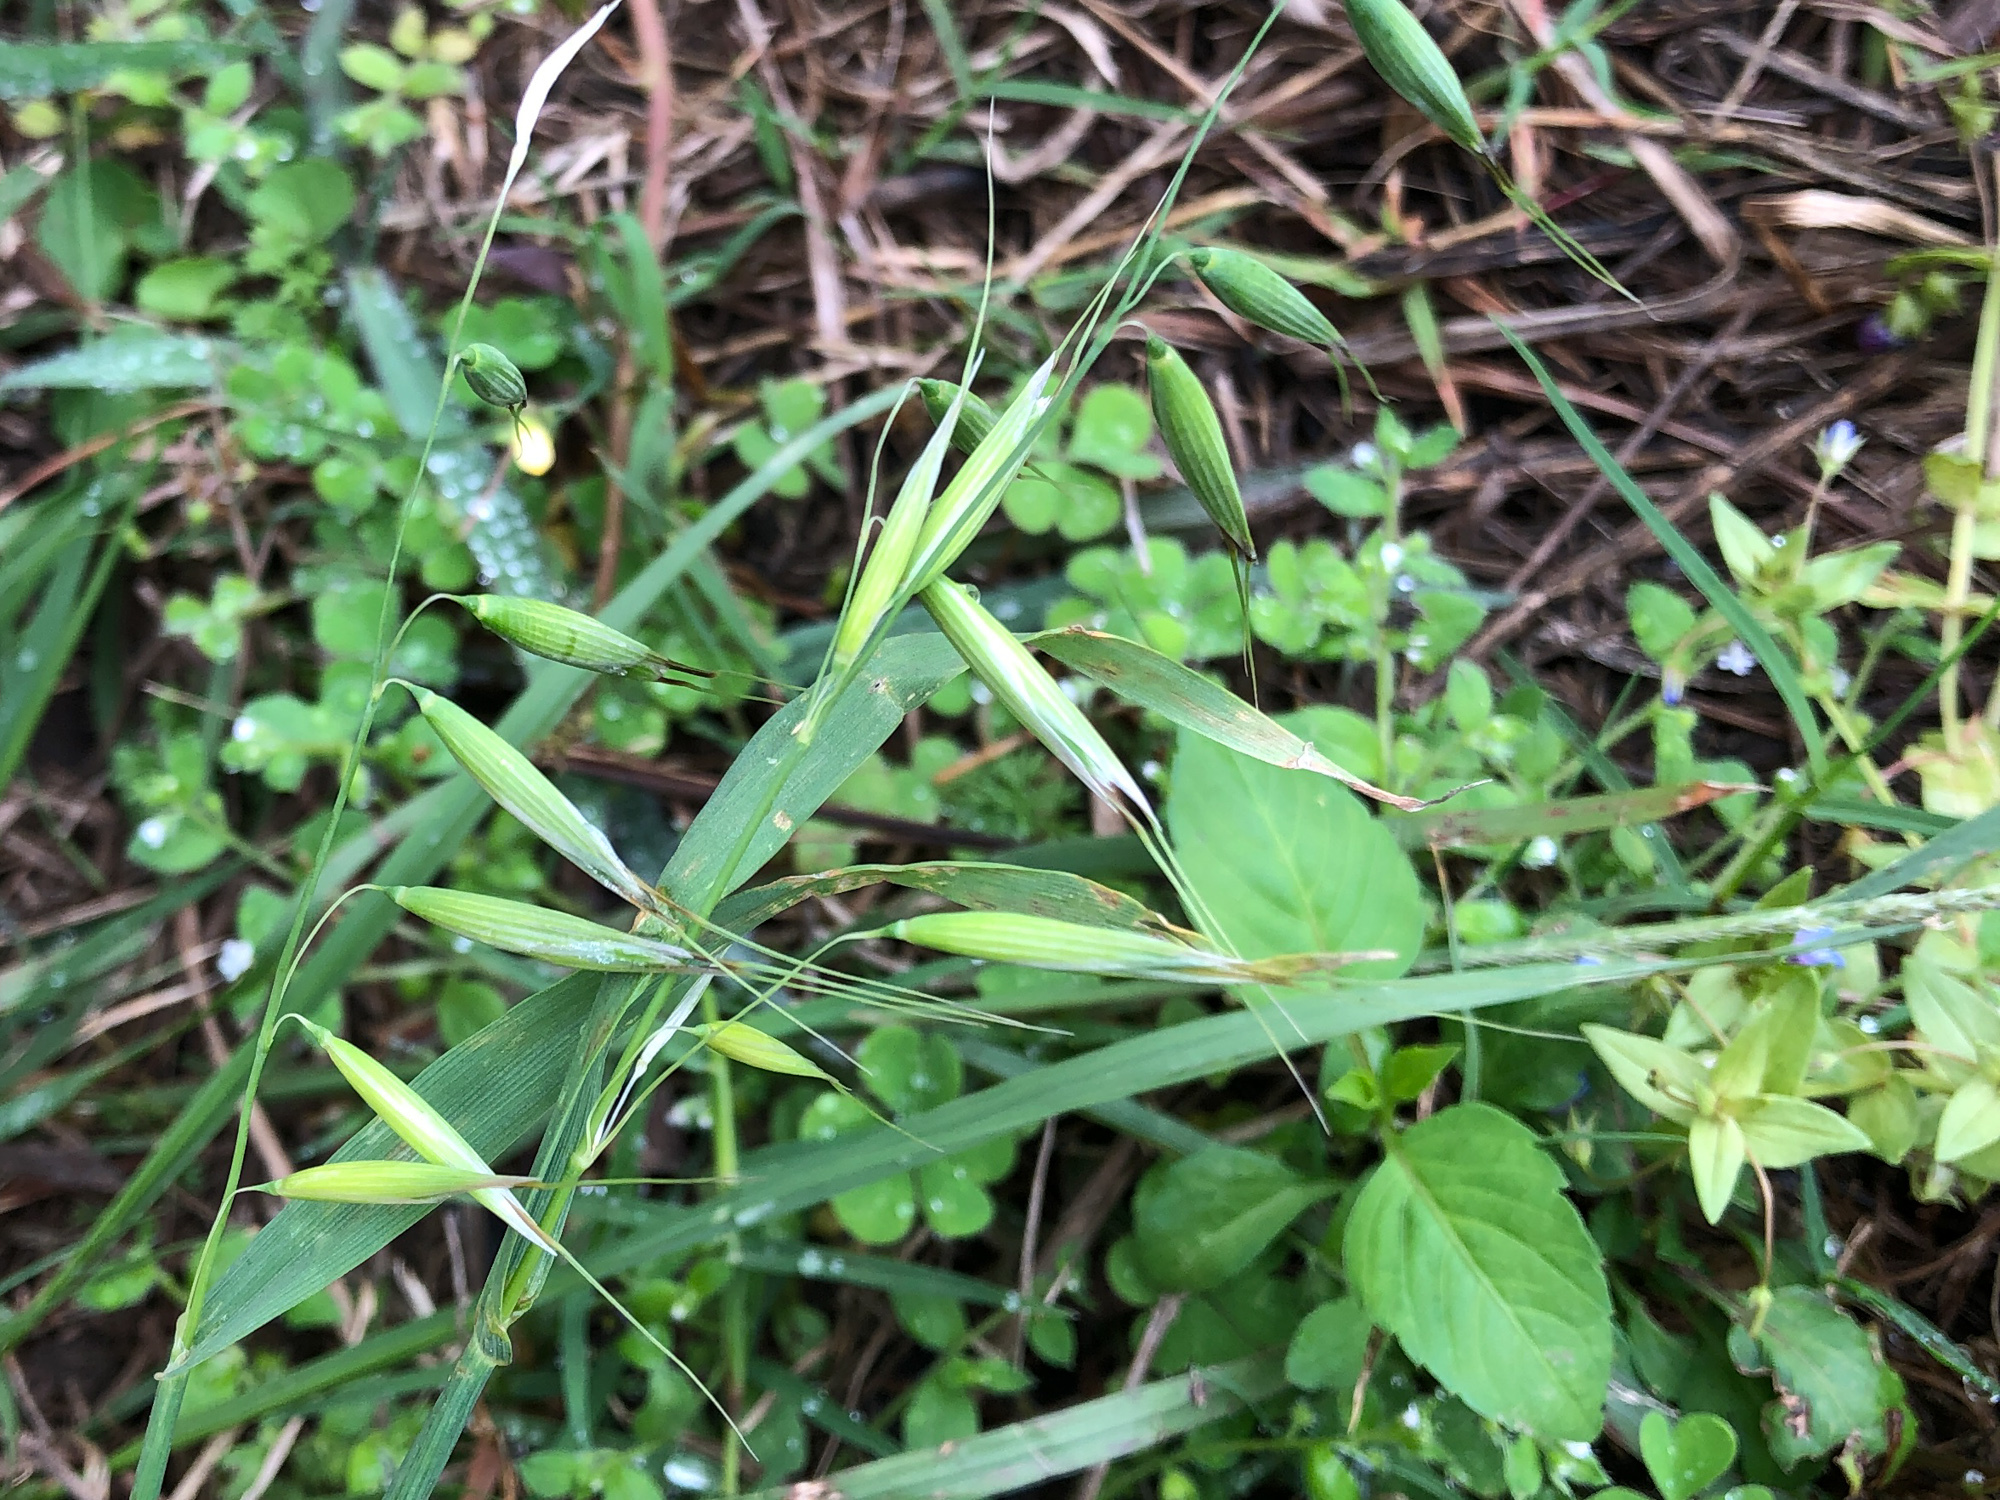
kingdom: Plantae
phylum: Tracheophyta
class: Liliopsida
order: Poales
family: Poaceae
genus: Avena
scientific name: Avena fatua
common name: Wild oat
